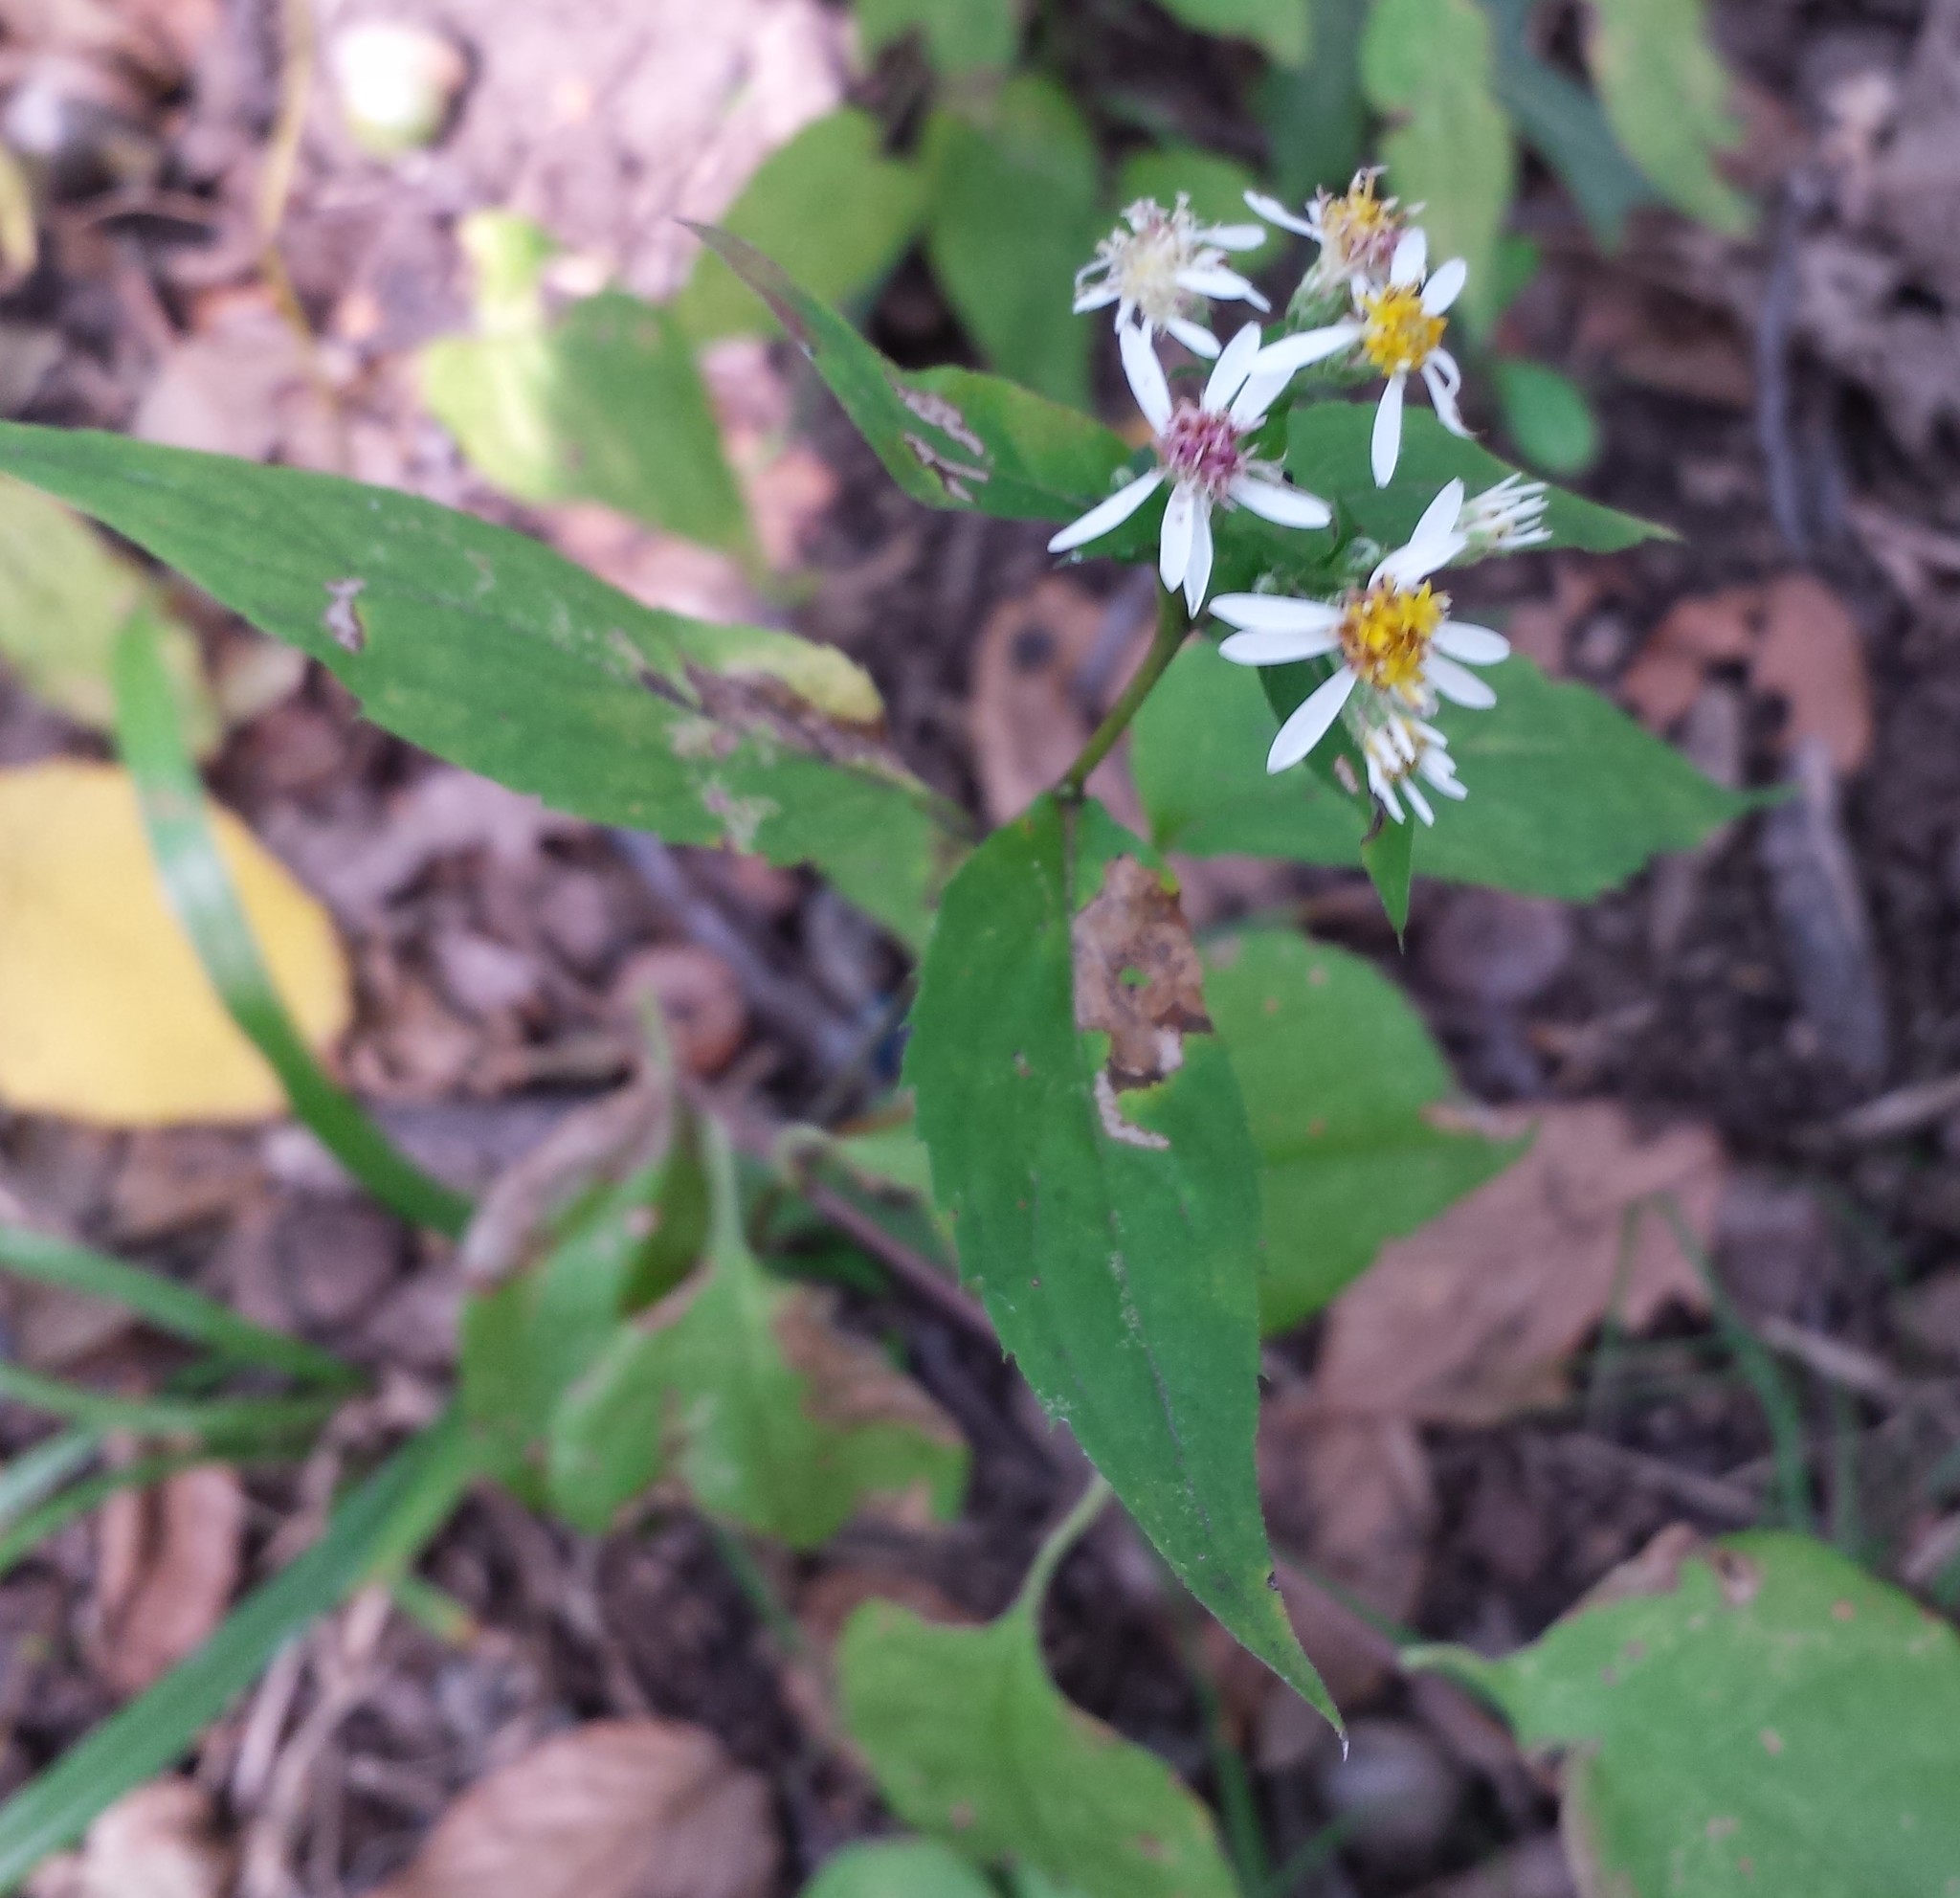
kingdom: Plantae
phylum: Tracheophyta
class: Magnoliopsida
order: Asterales
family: Asteraceae
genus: Eurybia
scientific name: Eurybia divaricata
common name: White wood aster
